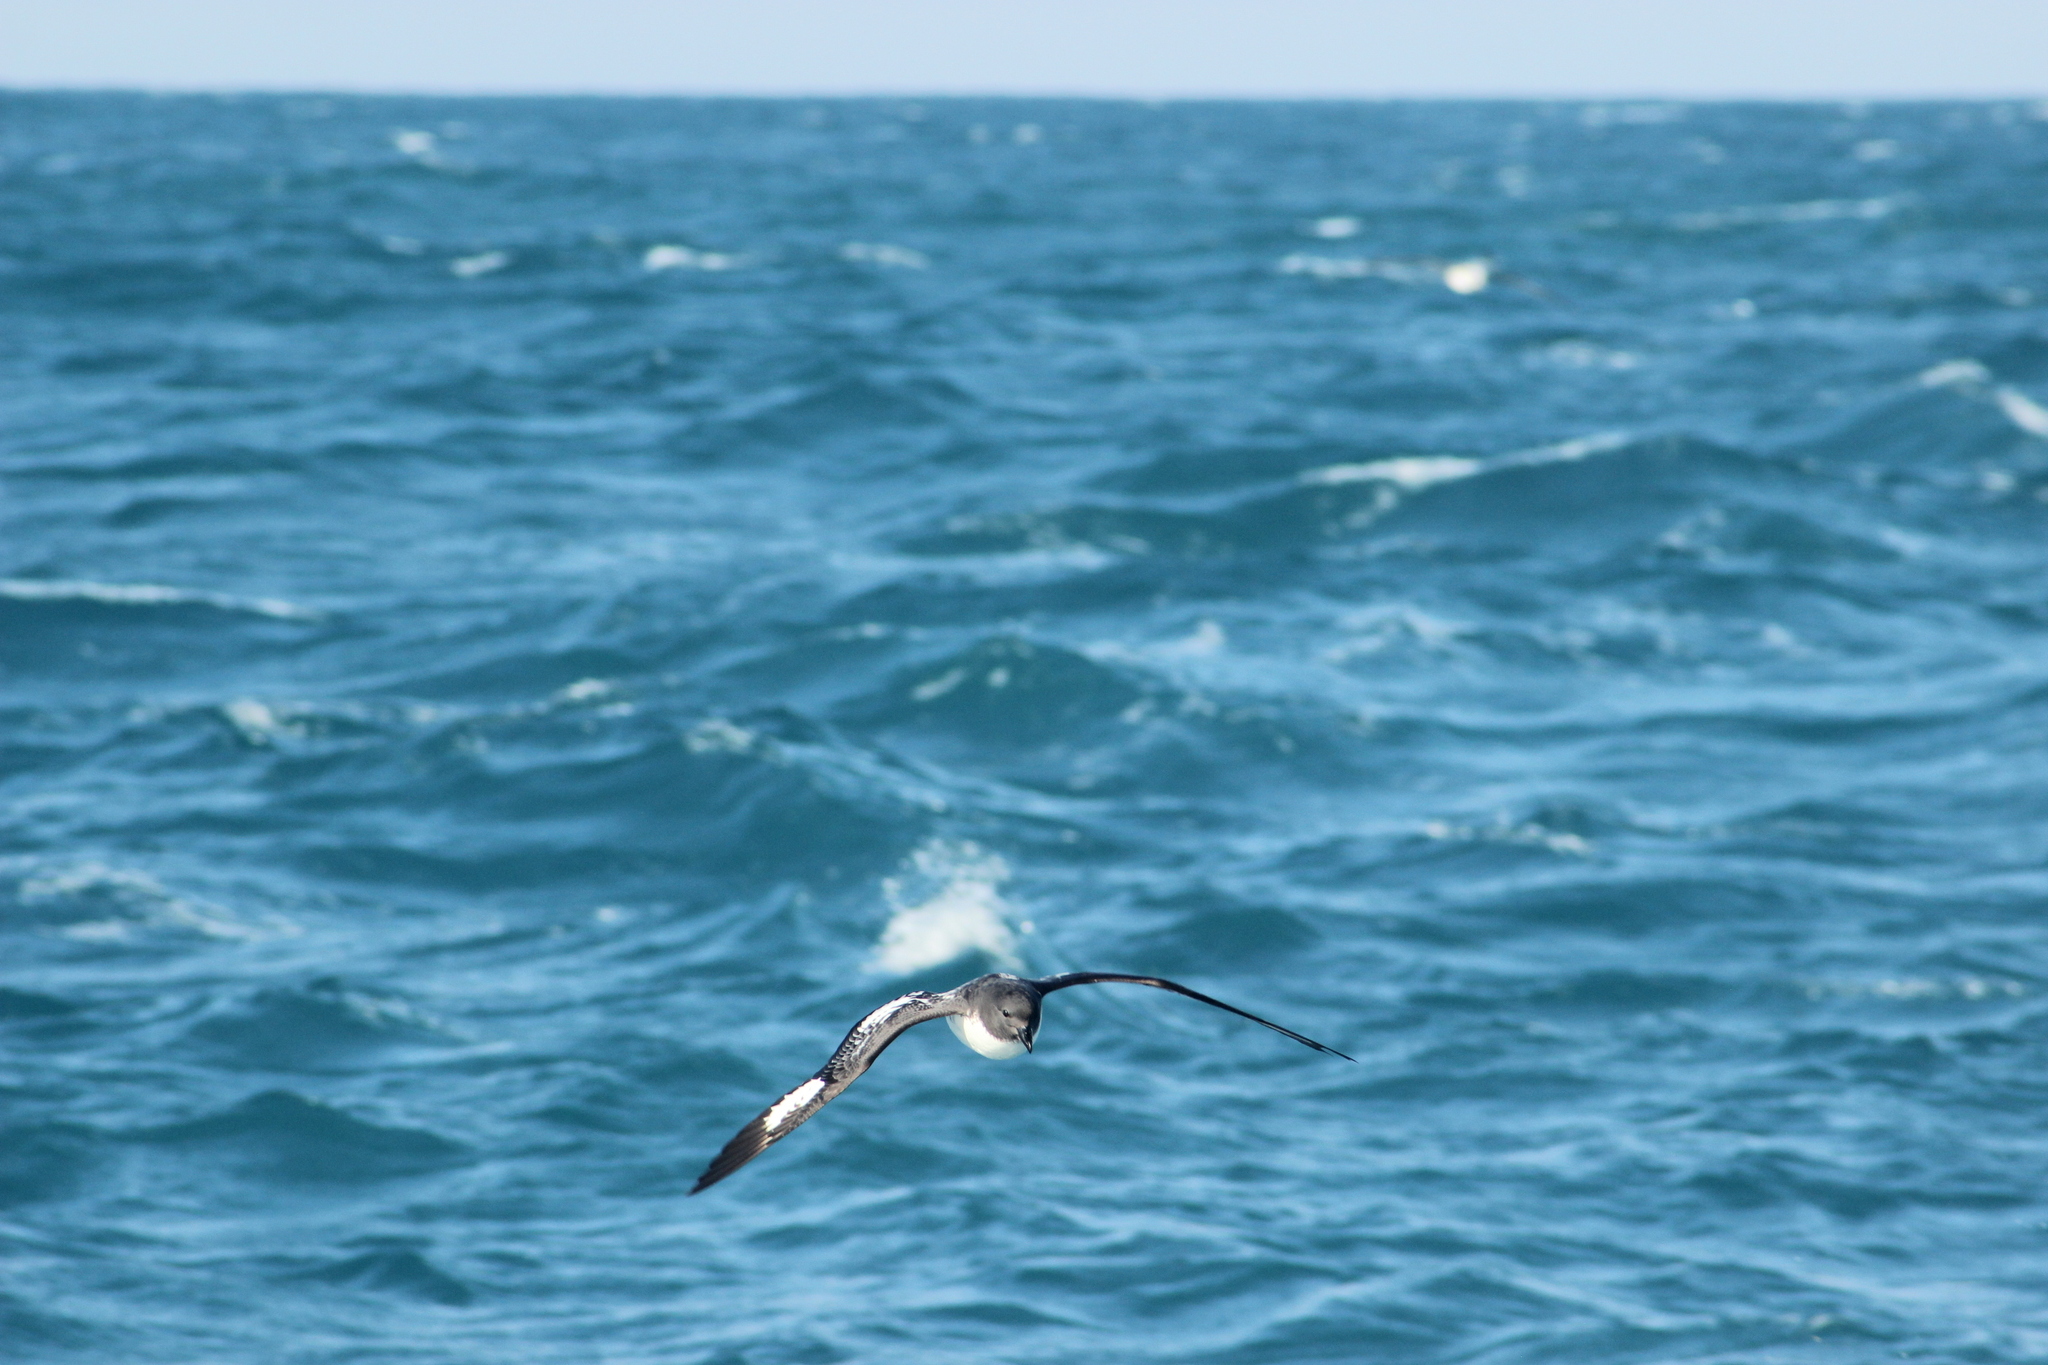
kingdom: Animalia
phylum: Chordata
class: Aves
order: Procellariiformes
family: Procellariidae
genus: Daption
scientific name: Daption capense
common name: Cape petrel
